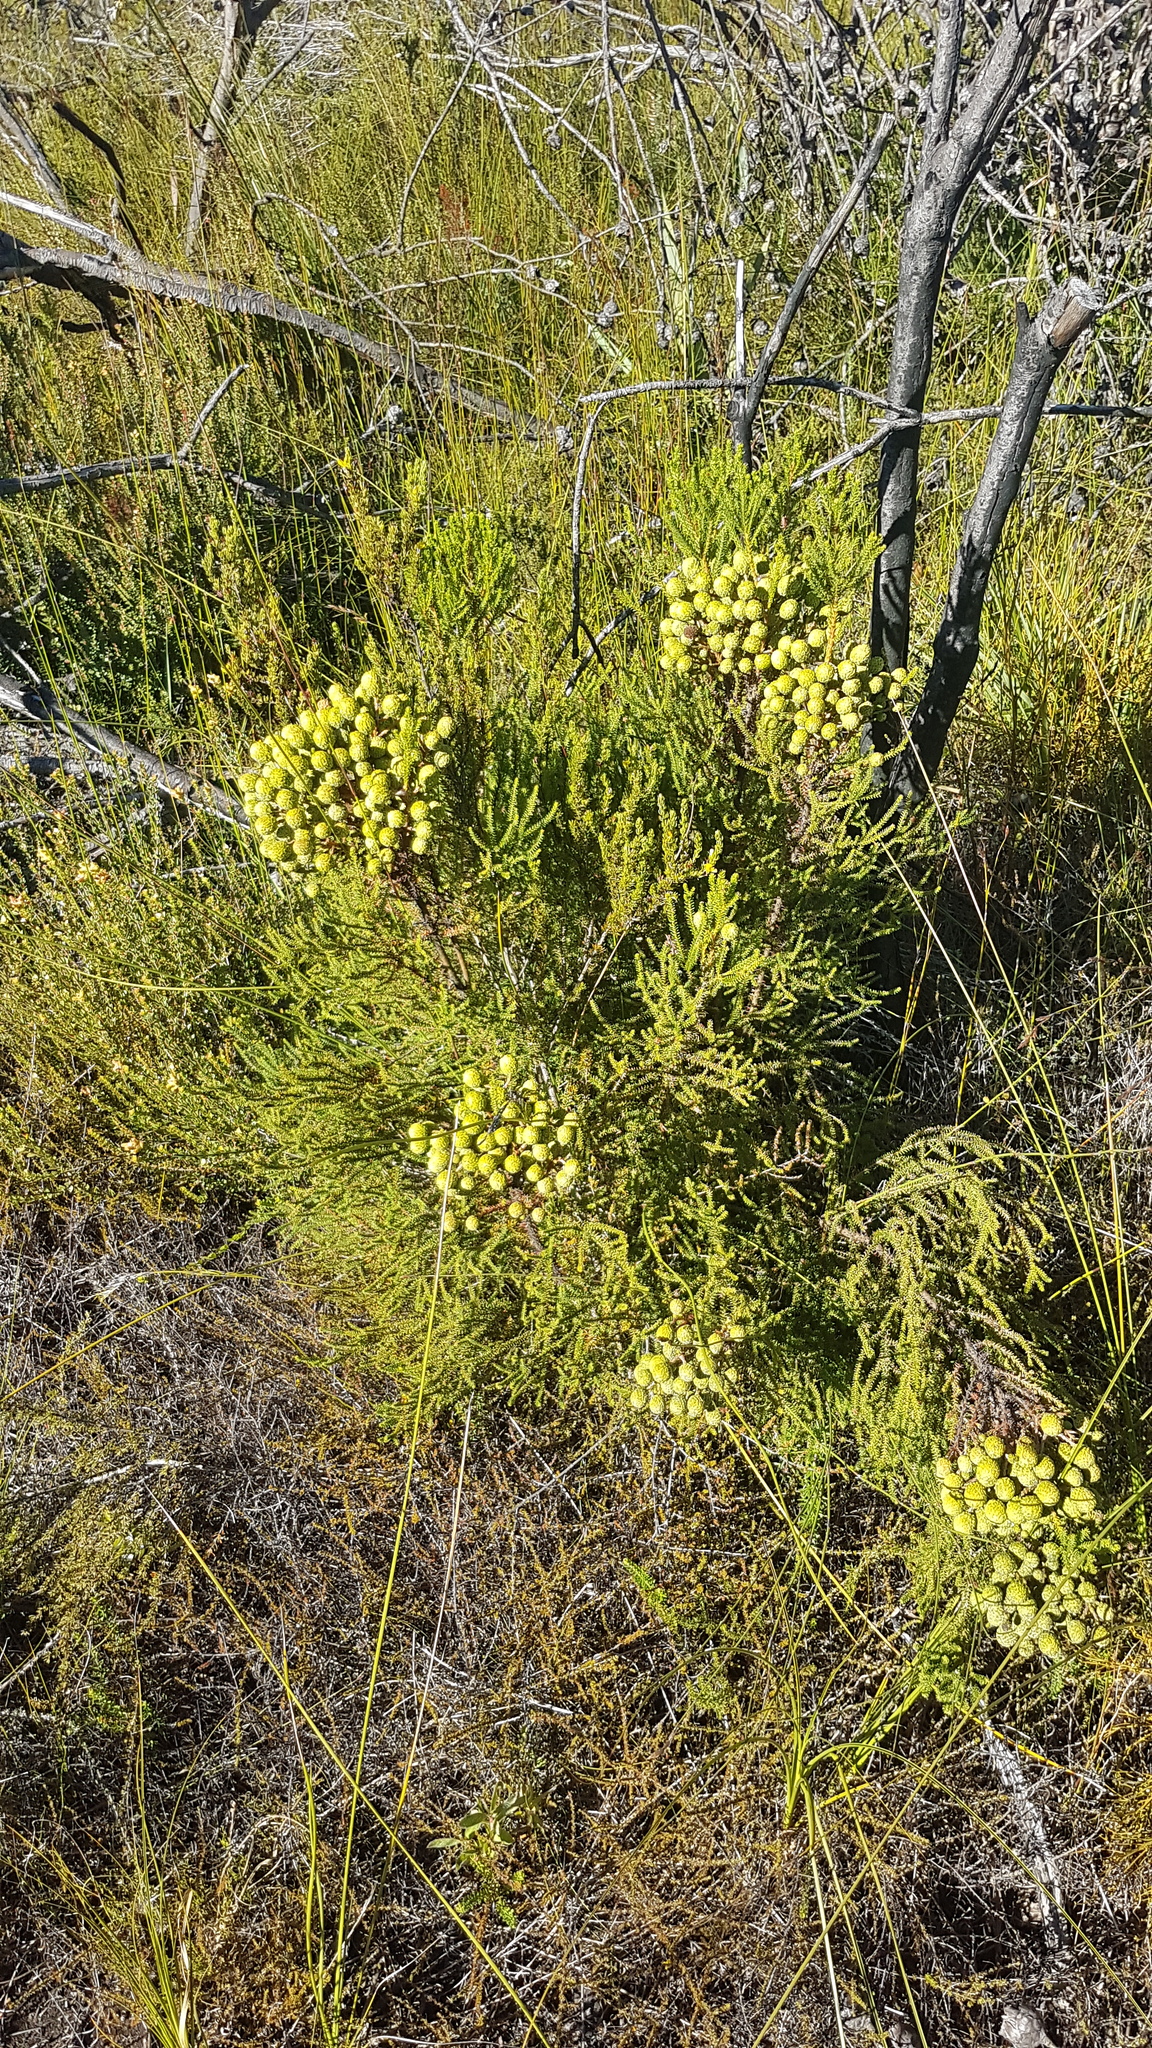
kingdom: Plantae
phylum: Tracheophyta
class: Magnoliopsida
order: Bruniales
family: Bruniaceae
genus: Berzelia
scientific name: Berzelia intermedia
